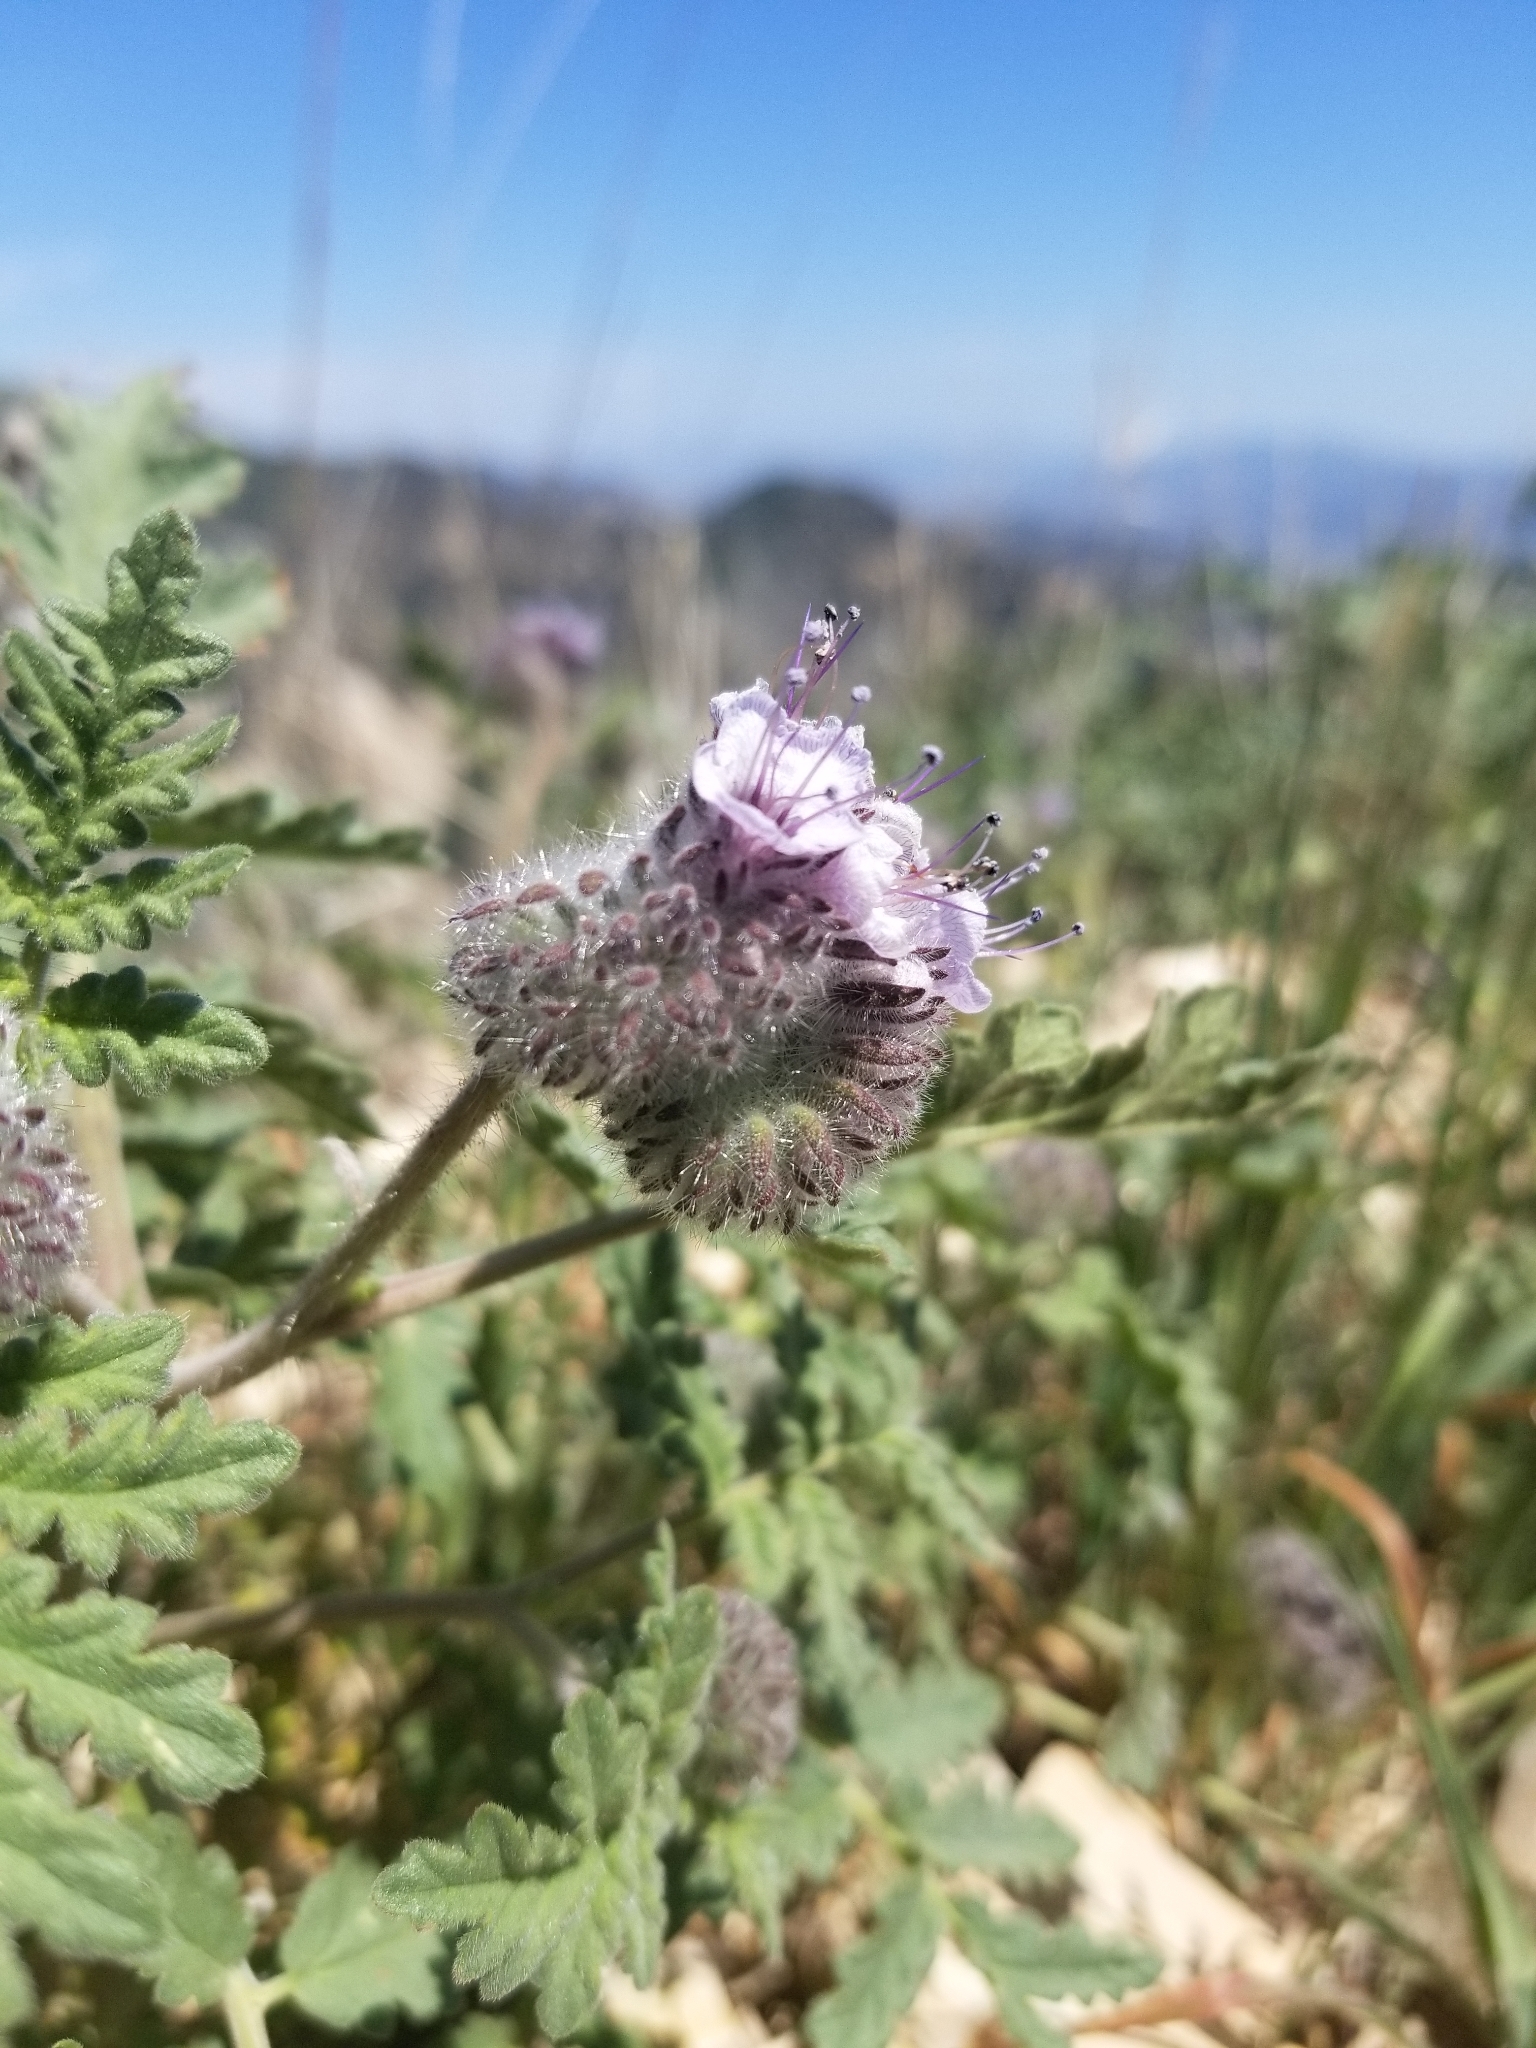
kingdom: Plantae
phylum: Tracheophyta
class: Magnoliopsida
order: Boraginales
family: Hydrophyllaceae
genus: Phacelia
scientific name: Phacelia hubbyi
